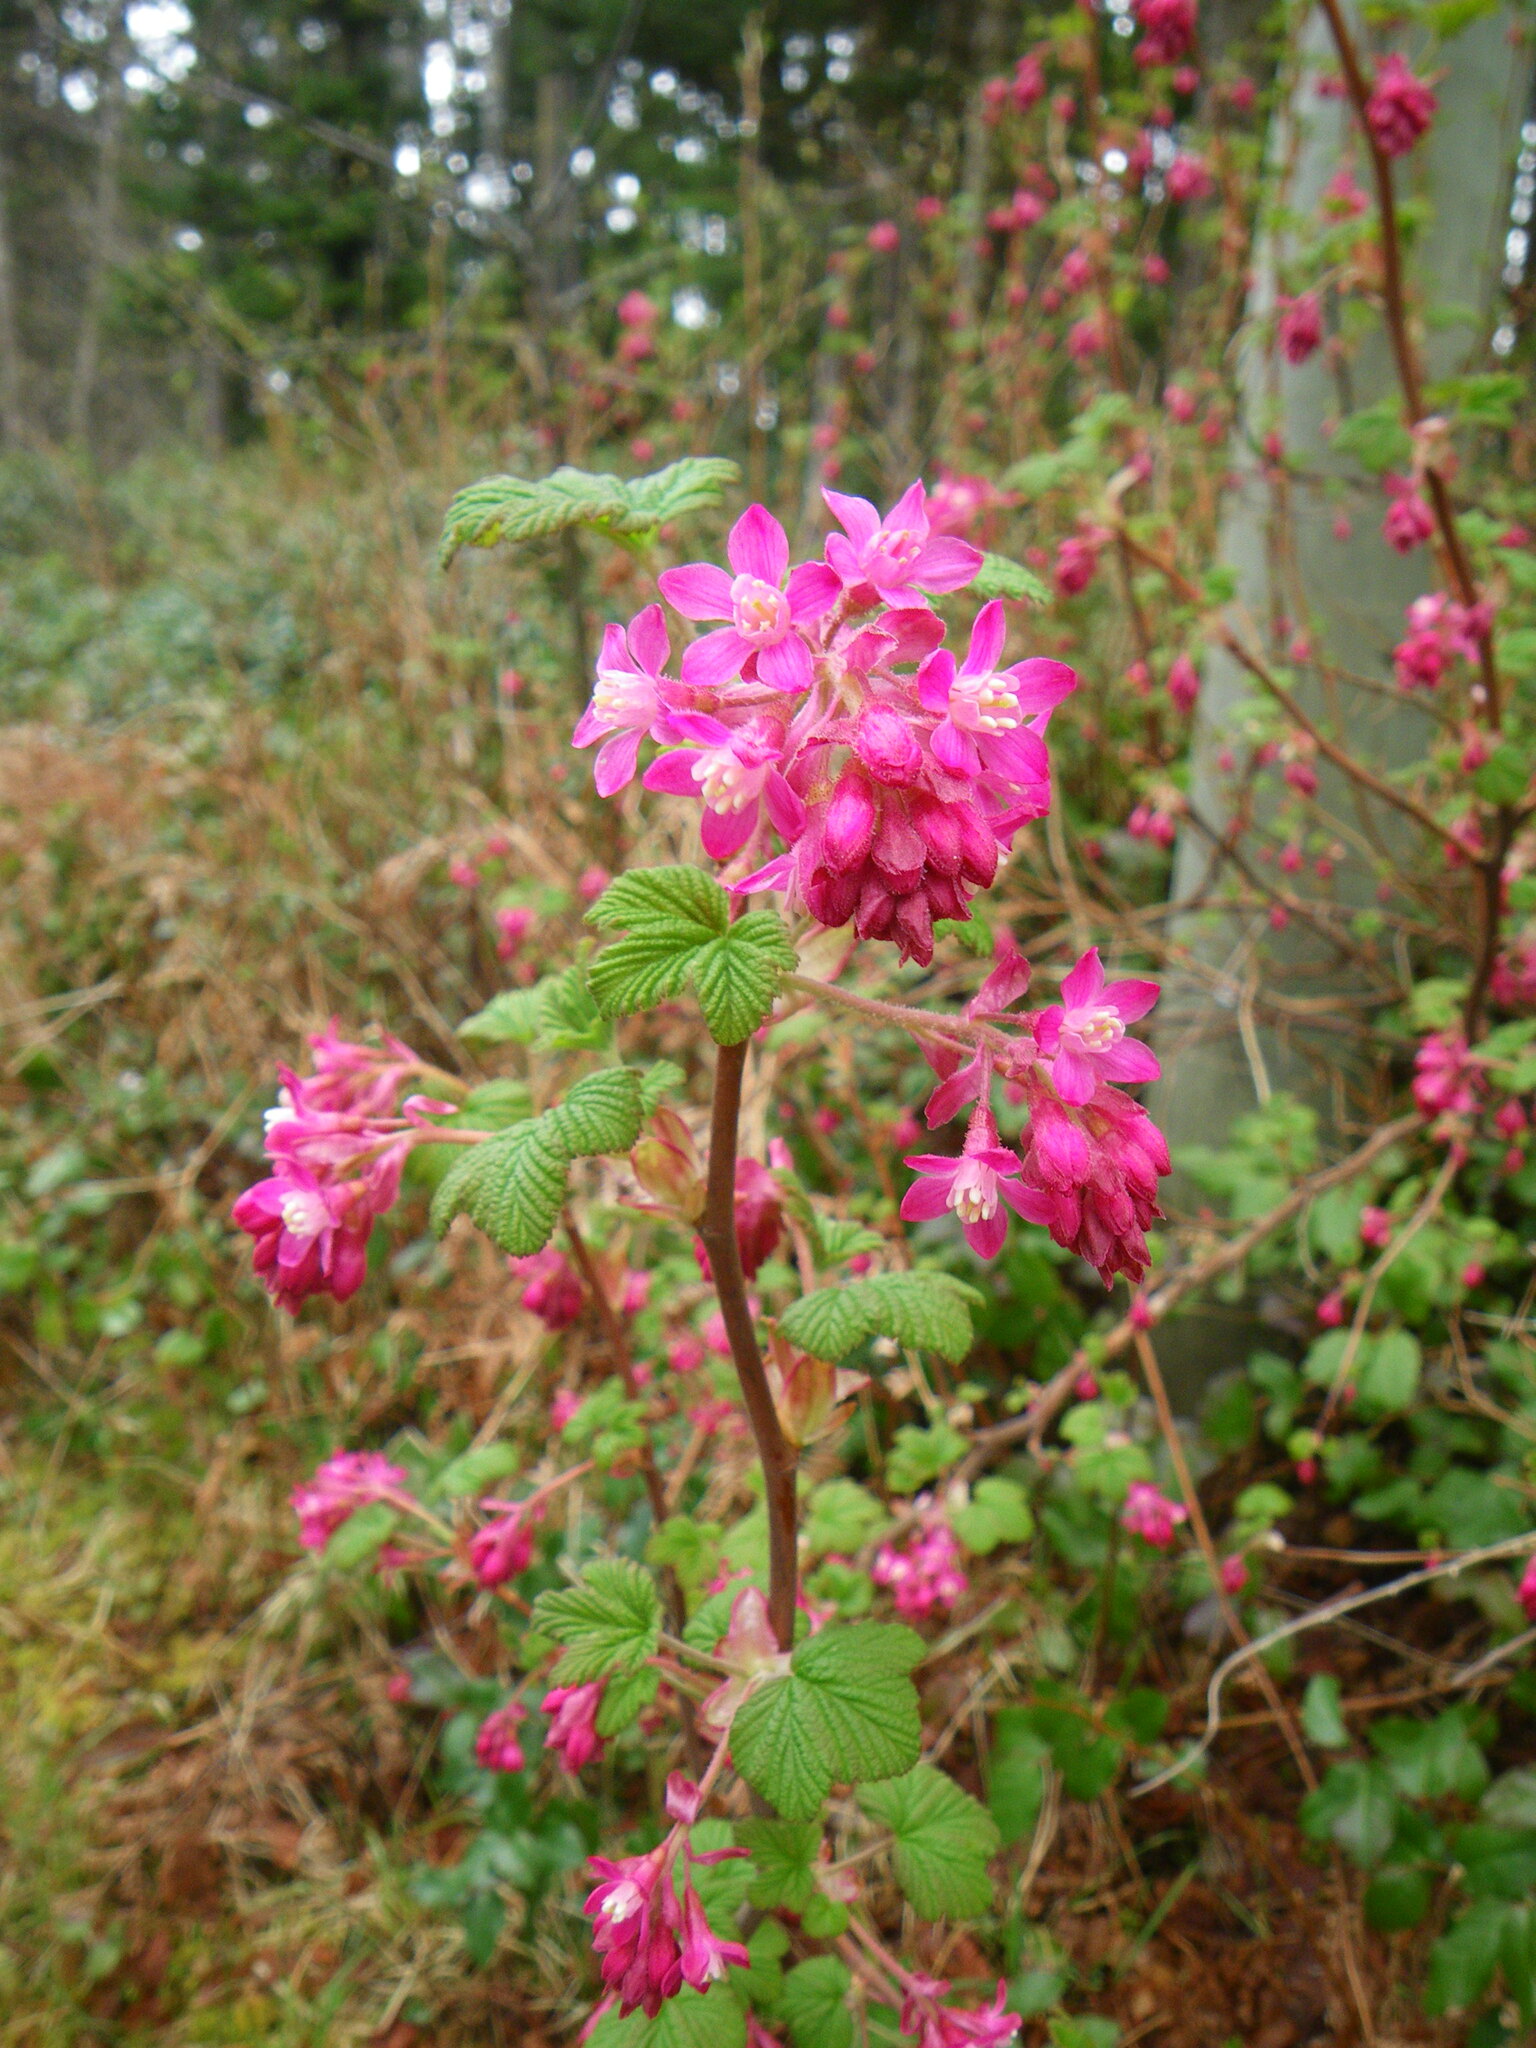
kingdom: Plantae
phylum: Tracheophyta
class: Magnoliopsida
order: Saxifragales
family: Grossulariaceae
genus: Ribes
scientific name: Ribes sanguineum
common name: Flowering currant
